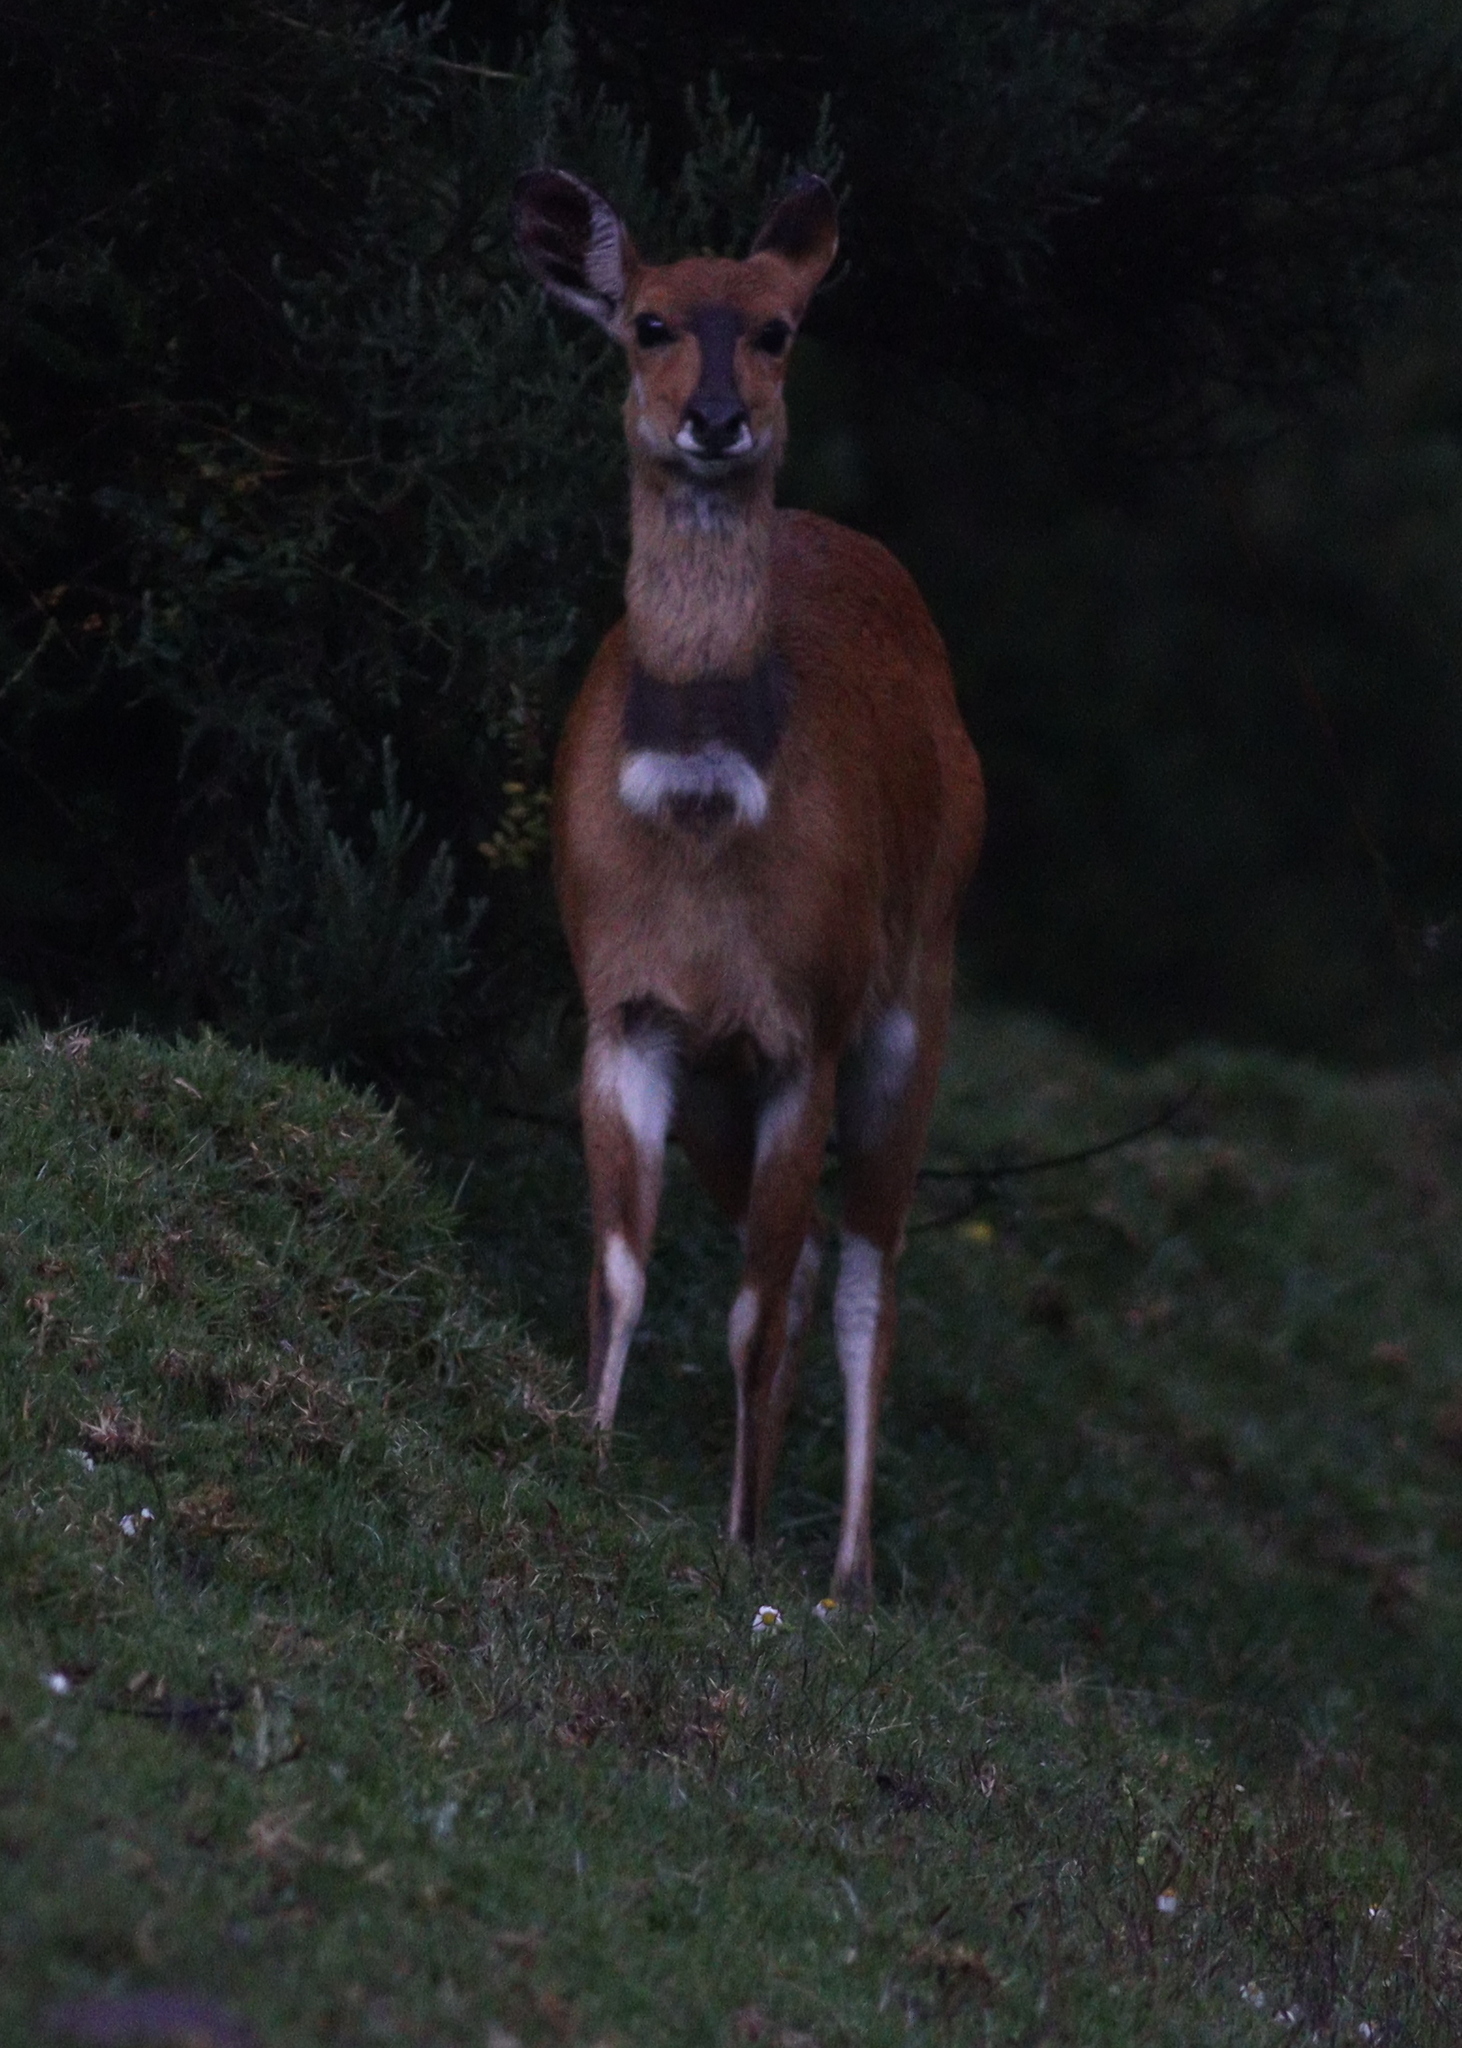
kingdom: Animalia
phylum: Chordata
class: Mammalia
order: Artiodactyla
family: Bovidae
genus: Tragelaphus
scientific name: Tragelaphus scriptus
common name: Bushbuck
